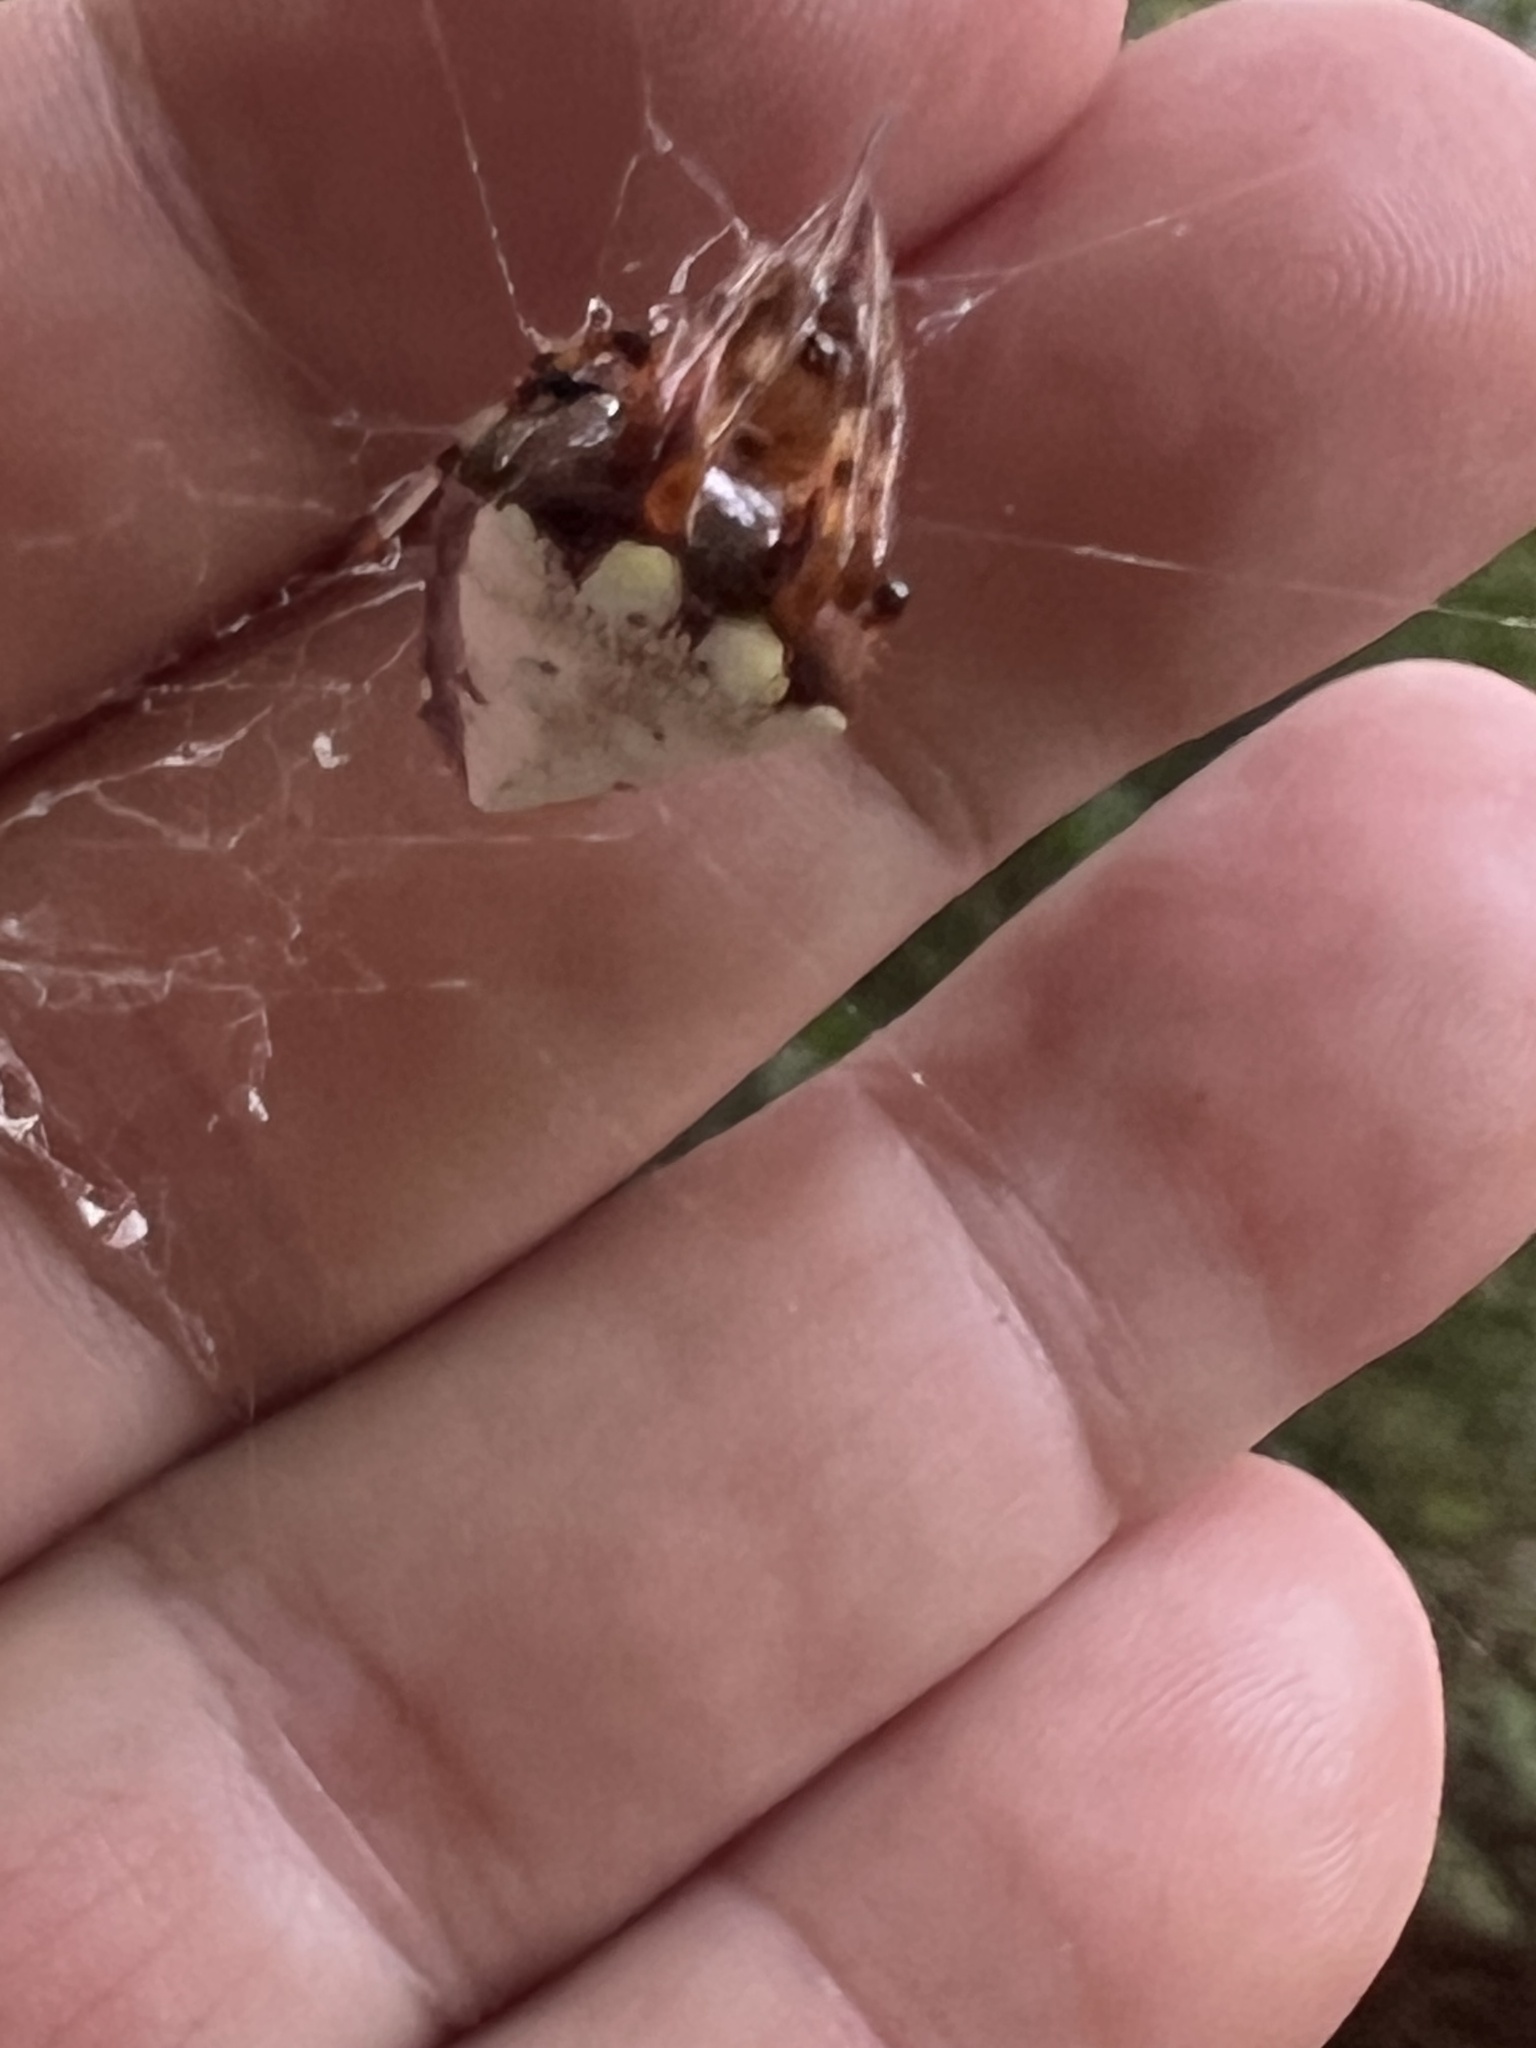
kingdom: Animalia
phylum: Arthropoda
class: Arachnida
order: Araneae
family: Araneidae
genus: Verrucosa
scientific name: Verrucosa arenata
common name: Orb weavers
